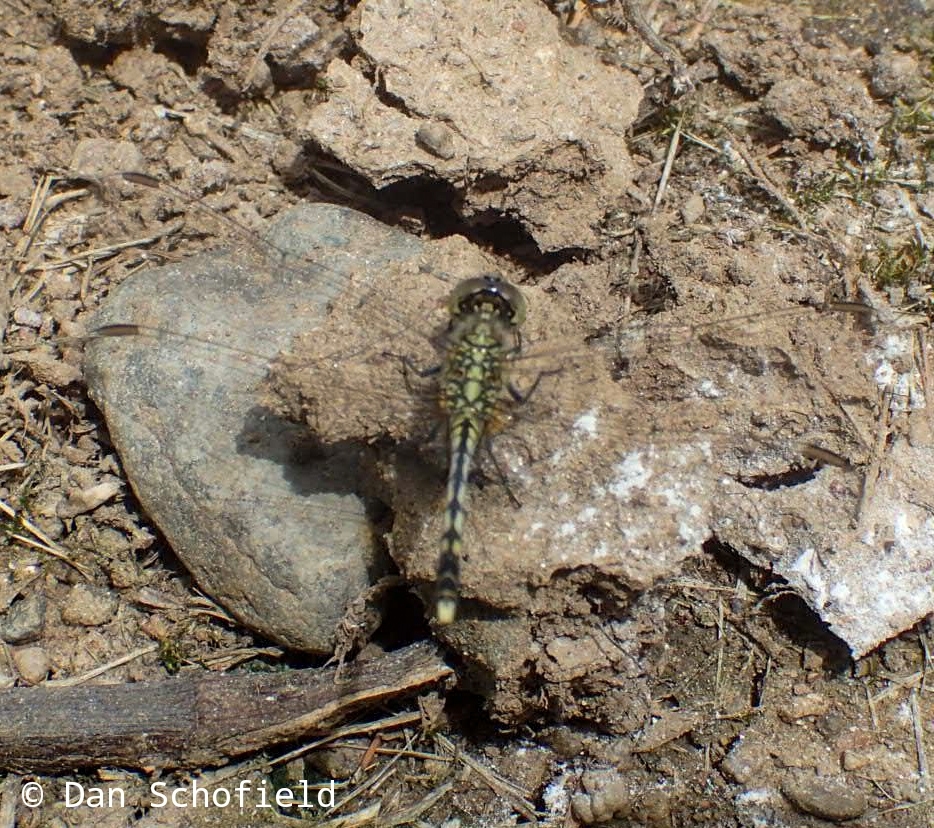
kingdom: Animalia
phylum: Arthropoda
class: Insecta
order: Odonata
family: Libellulidae
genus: Diplacodes
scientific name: Diplacodes trivialis
